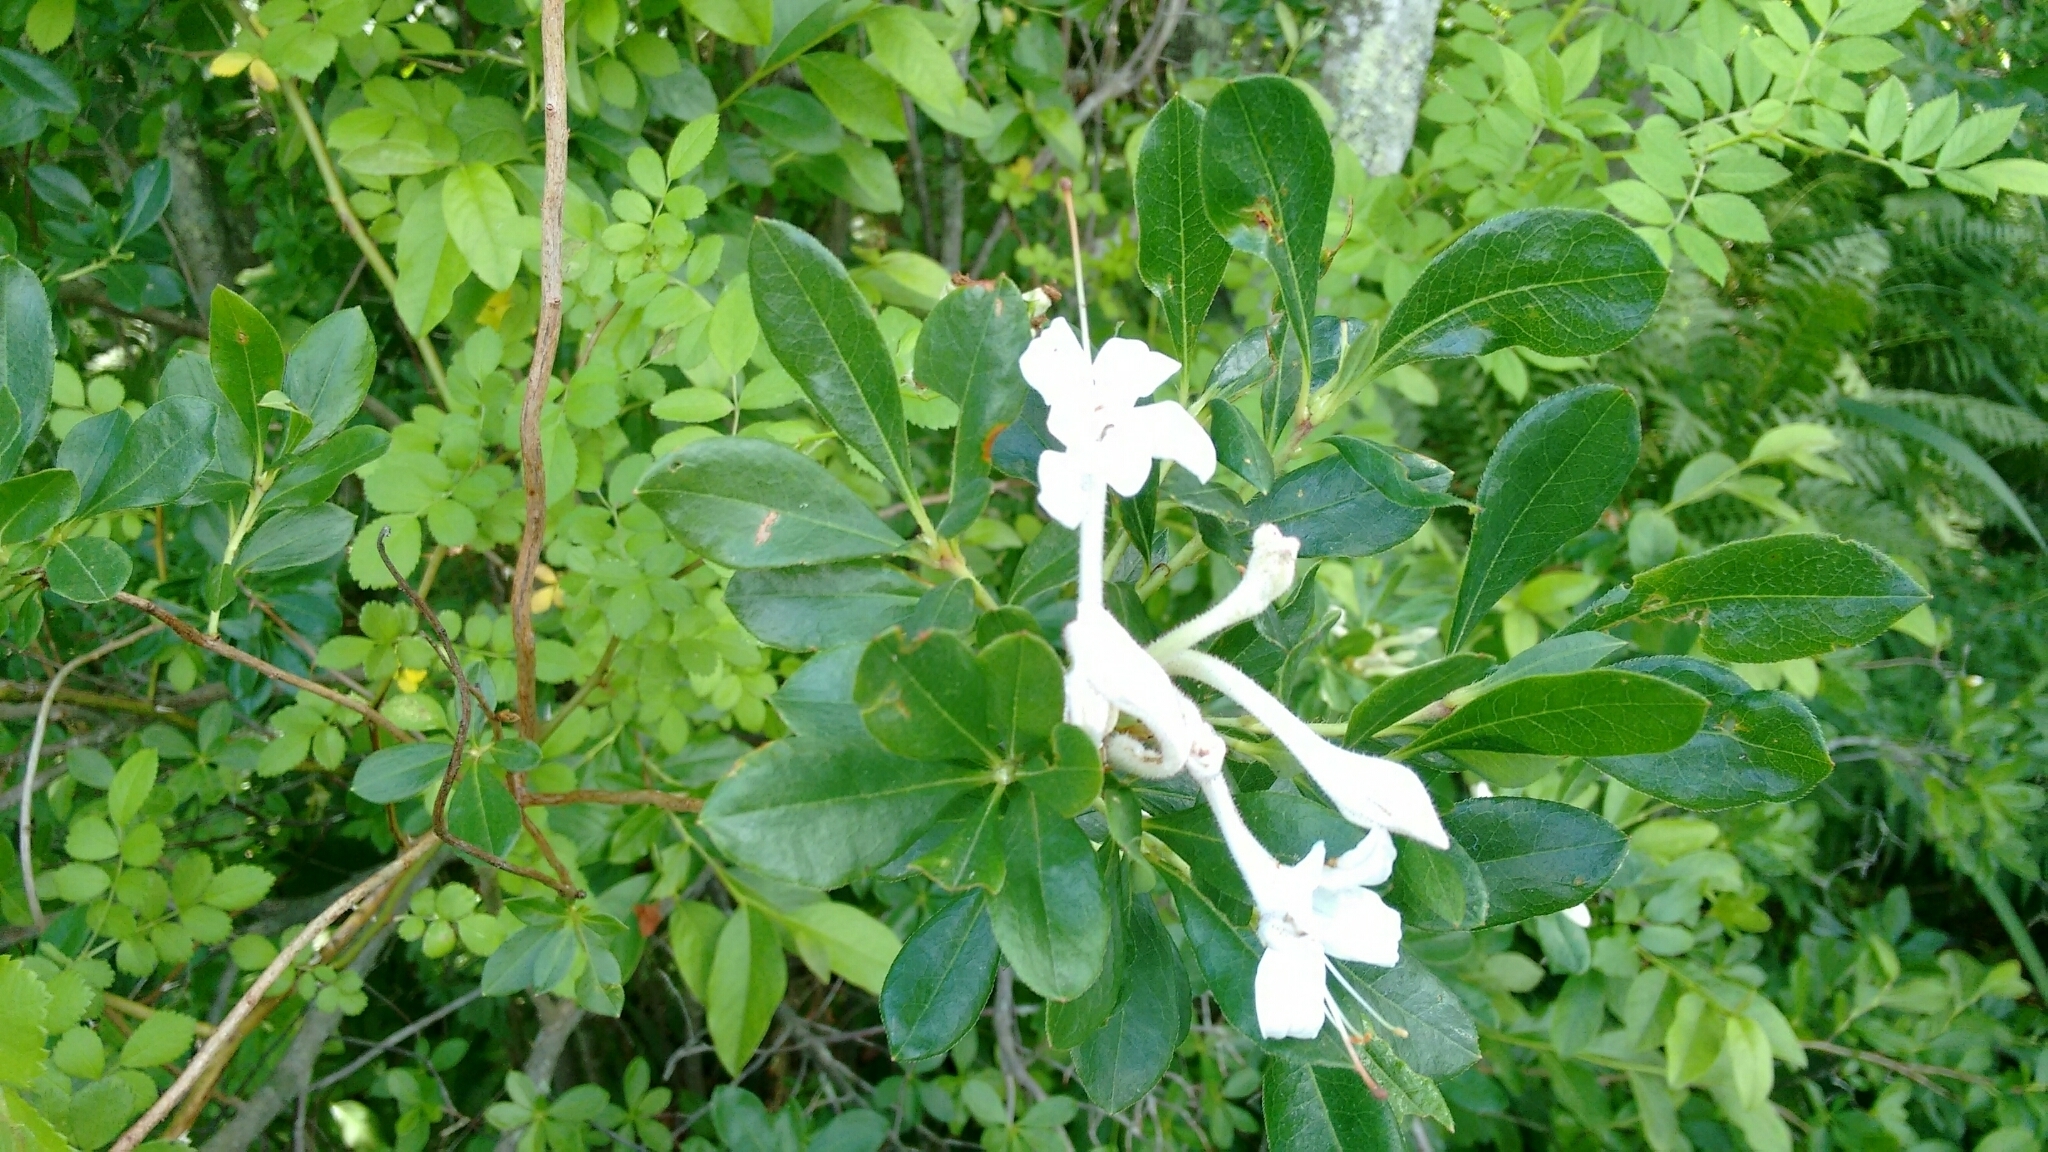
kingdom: Plantae
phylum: Tracheophyta
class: Magnoliopsida
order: Ericales
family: Ericaceae
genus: Rhododendron
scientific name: Rhododendron arborescens
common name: Sweet azalea
